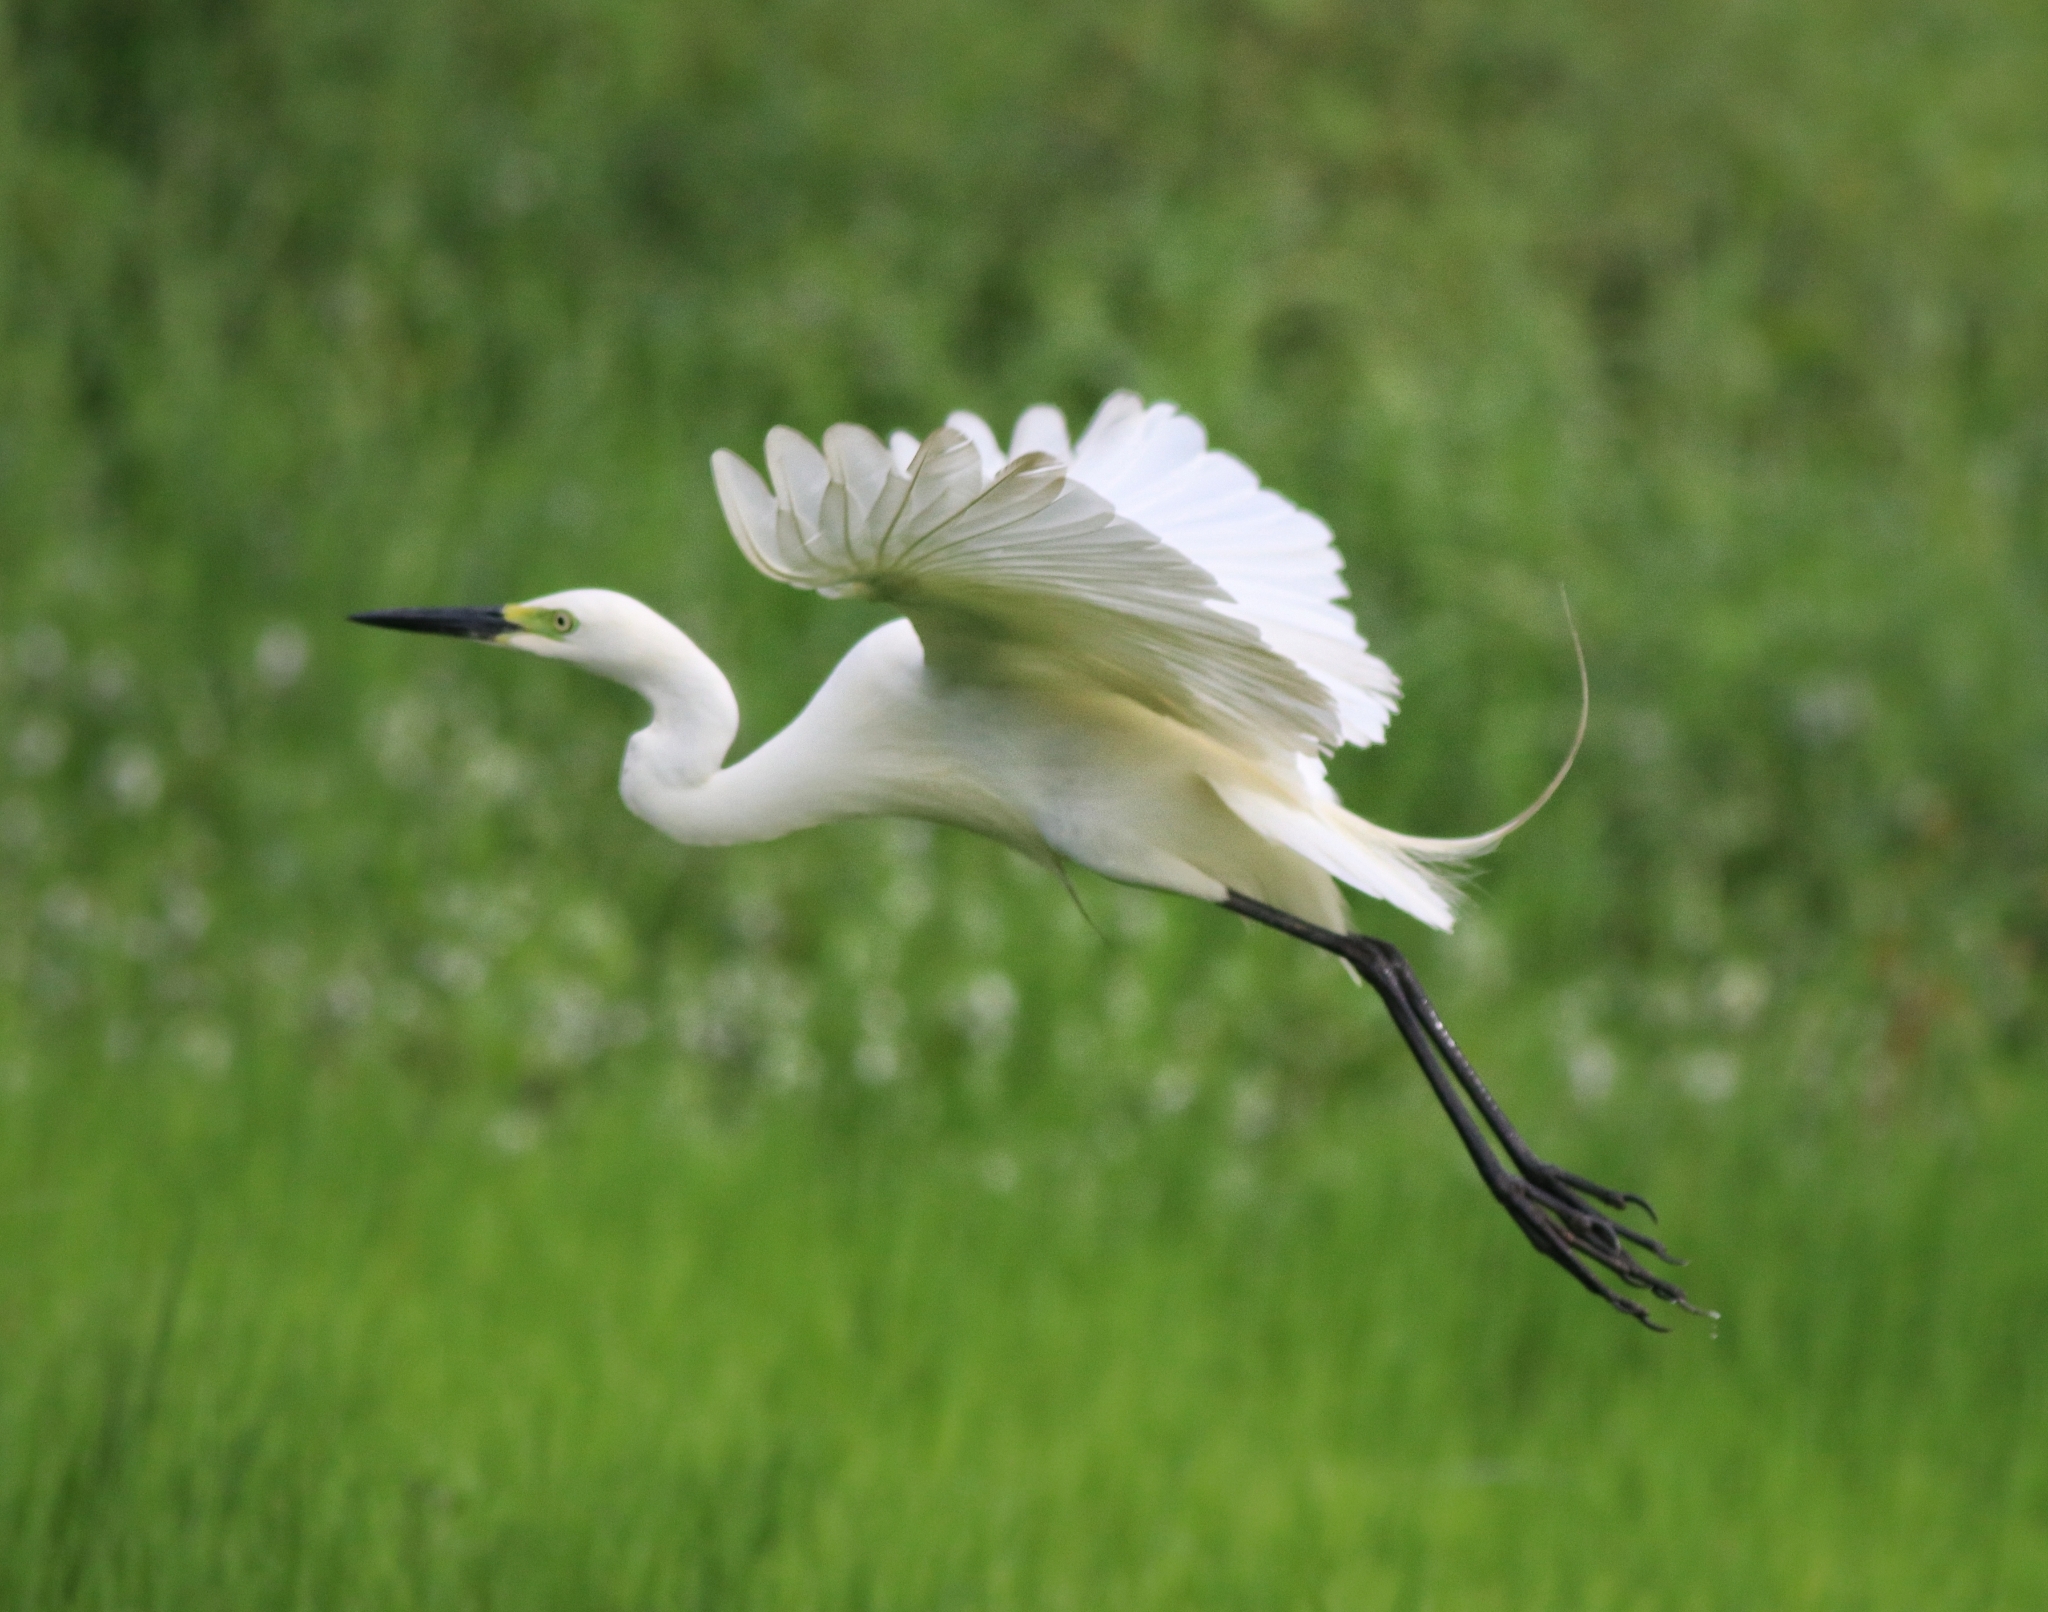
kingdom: Animalia
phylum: Chordata
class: Aves
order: Pelecaniformes
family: Ardeidae
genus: Egretta
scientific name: Egretta intermedia
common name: Intermediate egret
